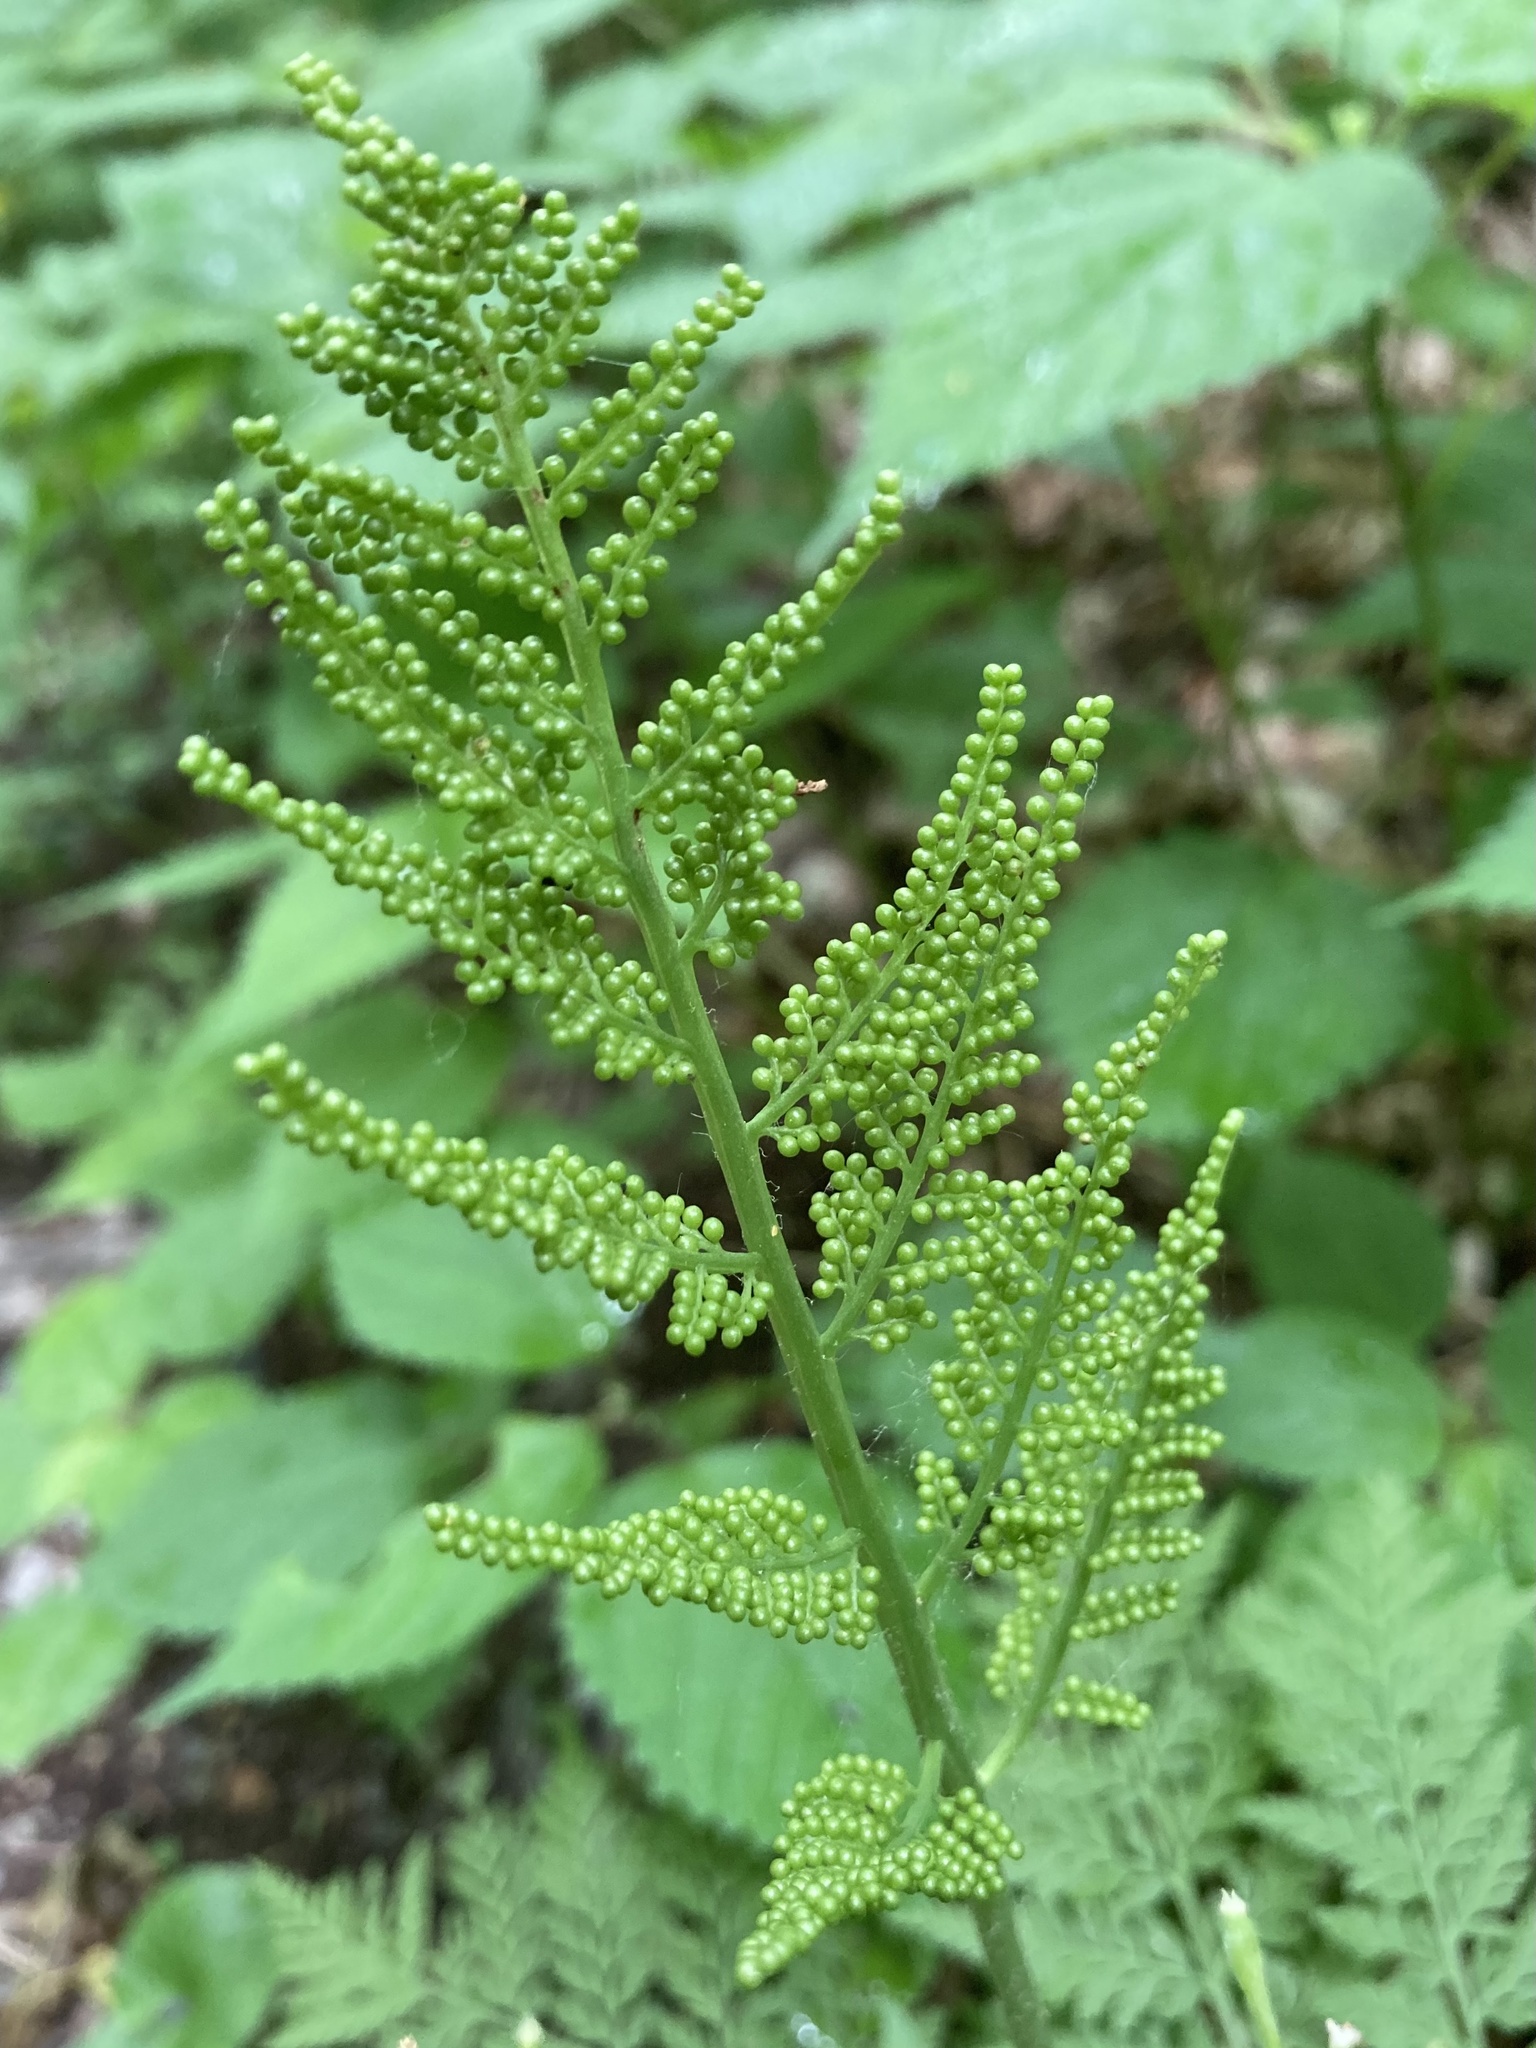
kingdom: Plantae
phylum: Tracheophyta
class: Polypodiopsida
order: Ophioglossales
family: Ophioglossaceae
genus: Botrypus
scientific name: Botrypus virginianus
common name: Common grapefern
